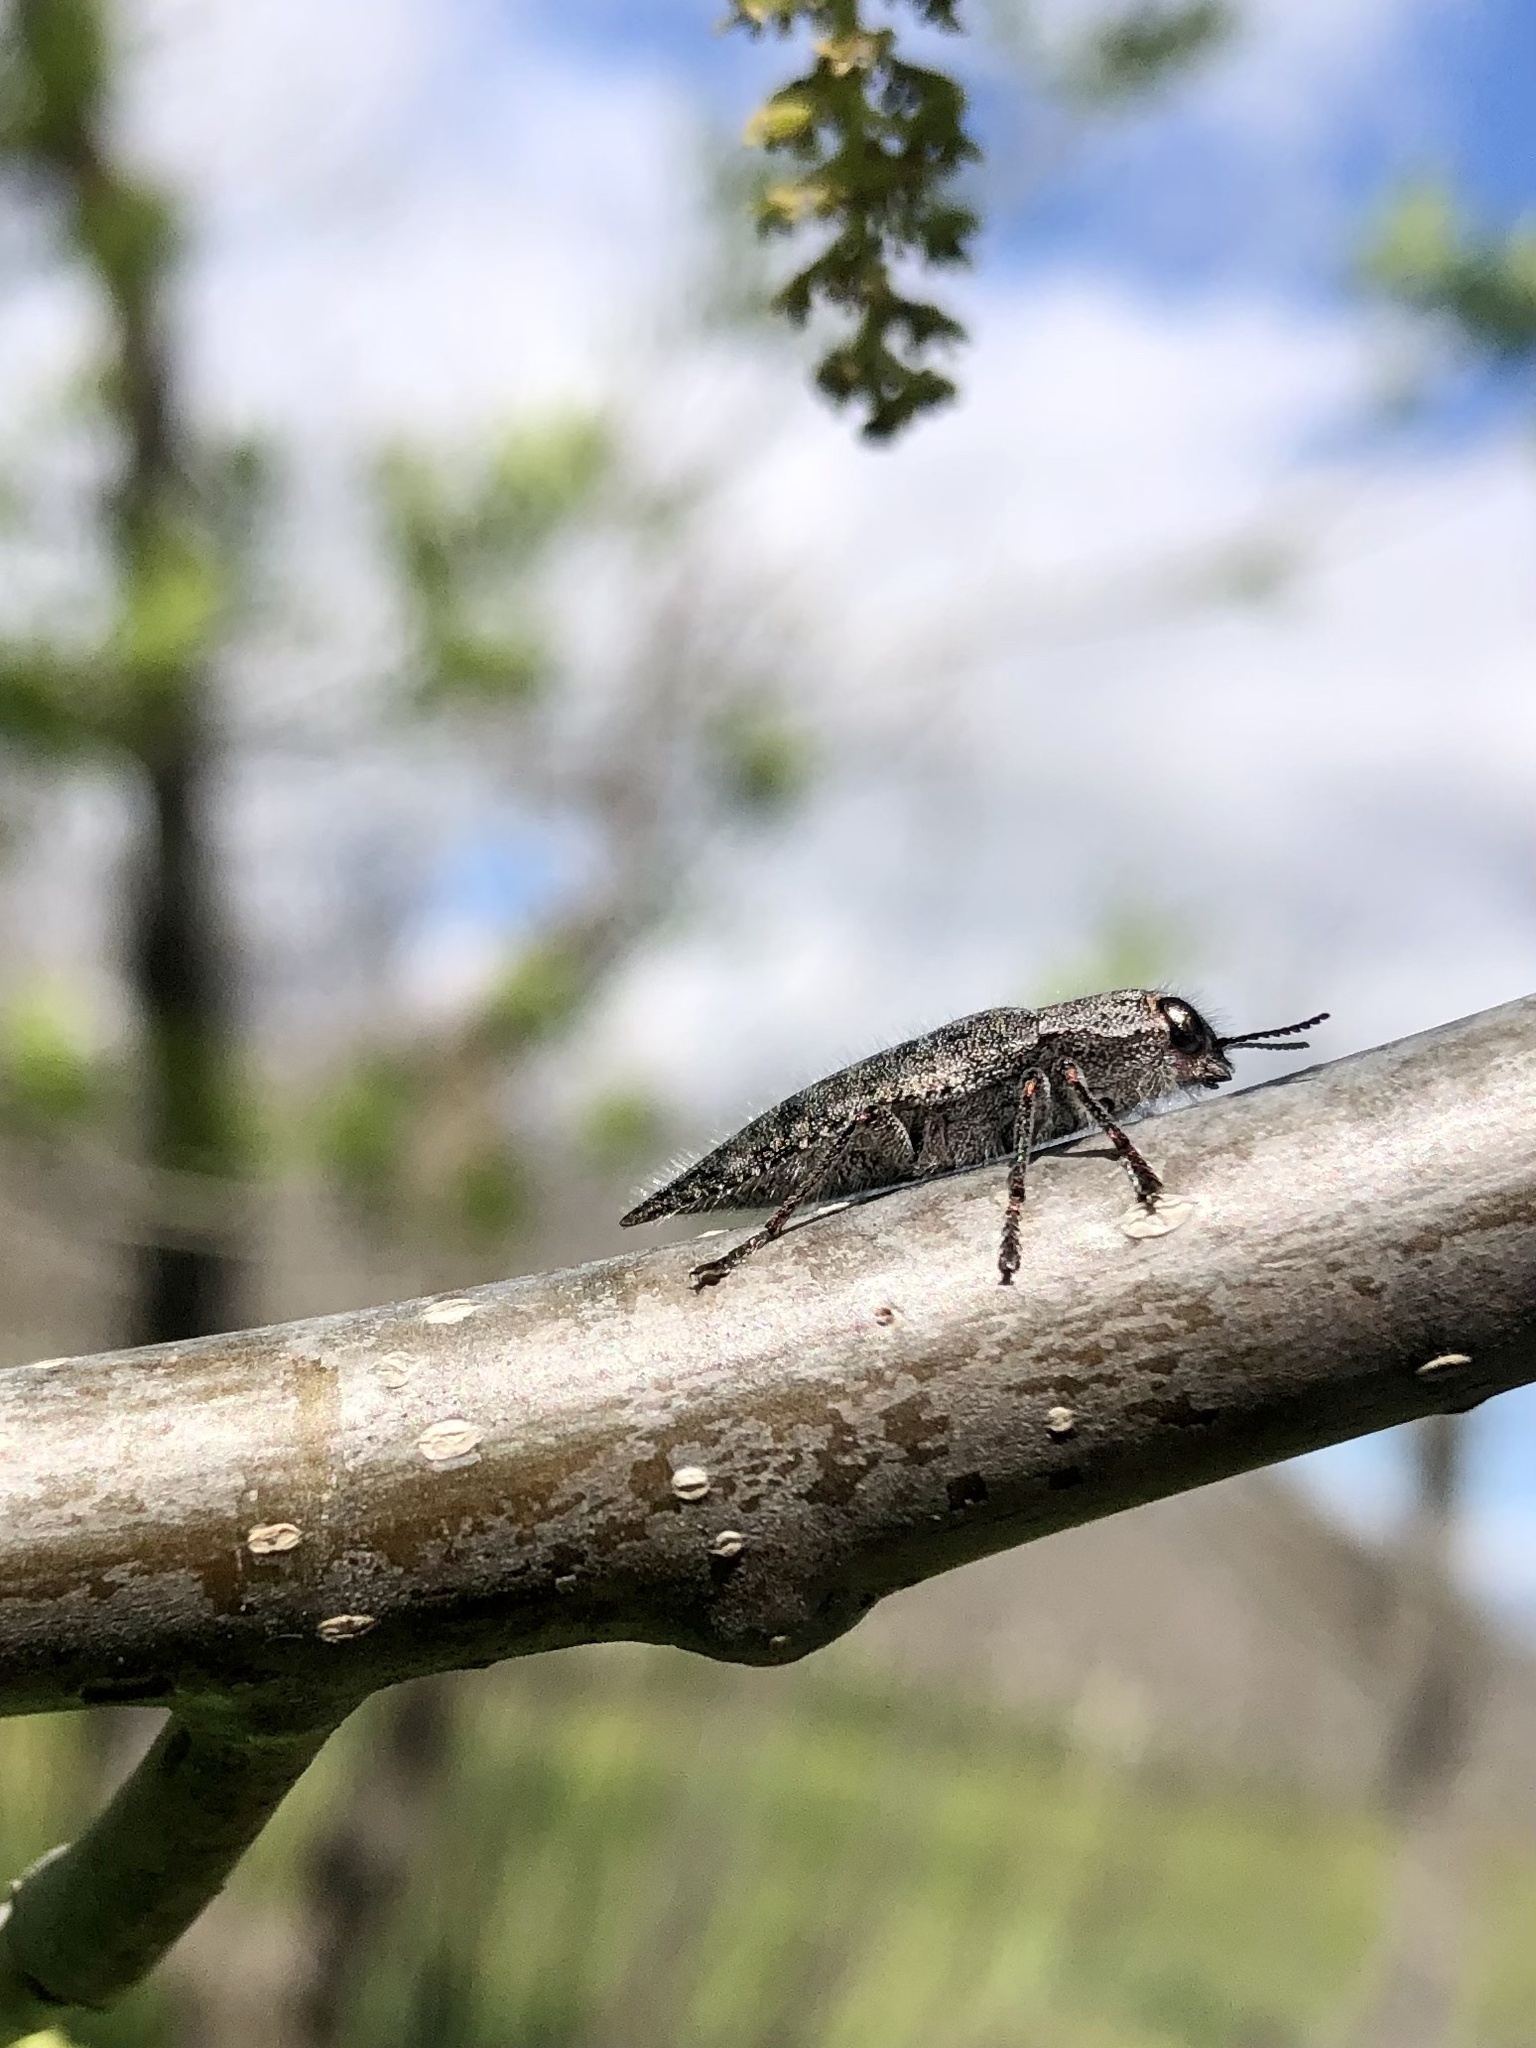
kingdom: Animalia
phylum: Arthropoda
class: Insecta
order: Coleoptera
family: Buprestidae
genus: Dicerca
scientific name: Dicerca hornii
